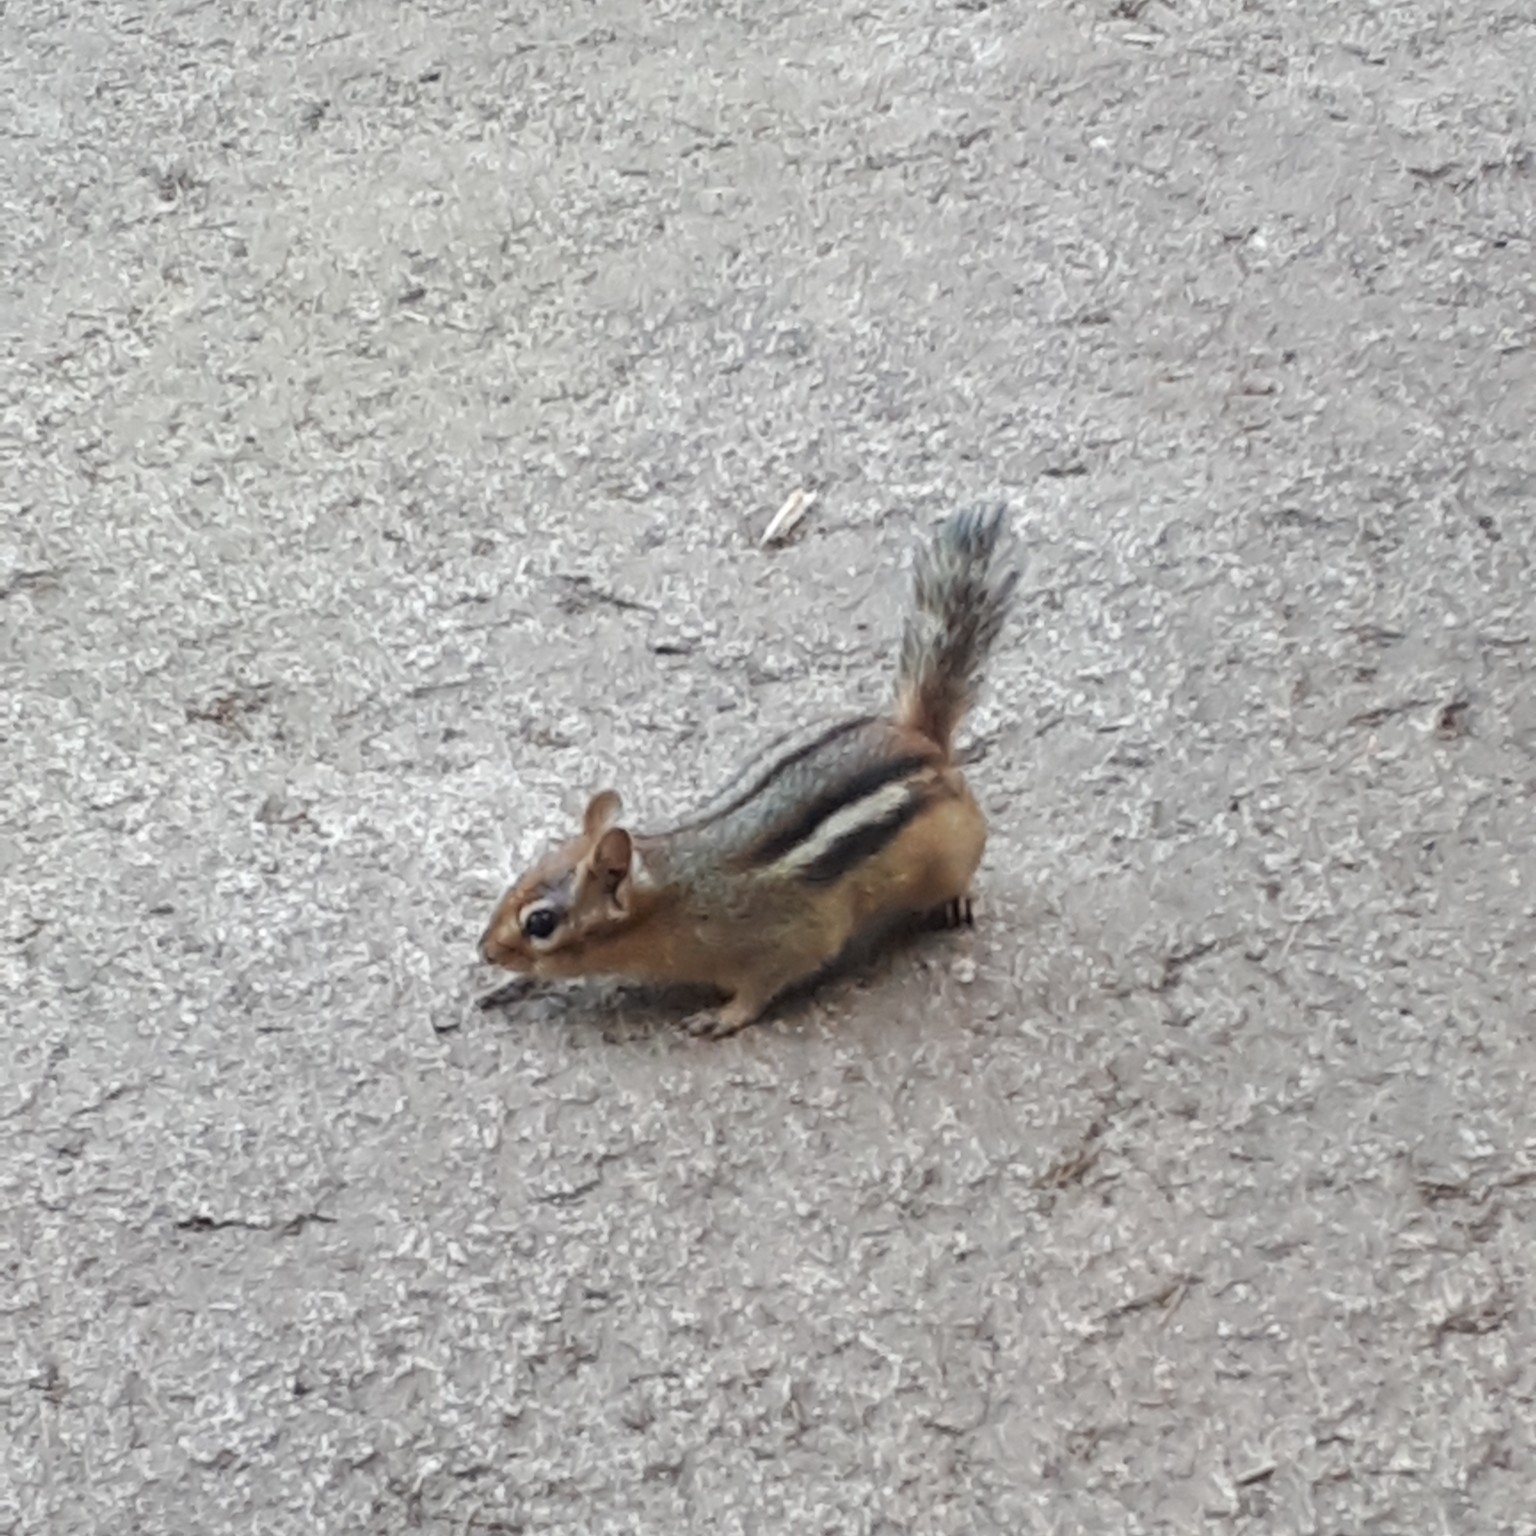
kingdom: Animalia
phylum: Chordata
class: Mammalia
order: Rodentia
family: Sciuridae
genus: Tamias
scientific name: Tamias striatus
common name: Eastern chipmunk
